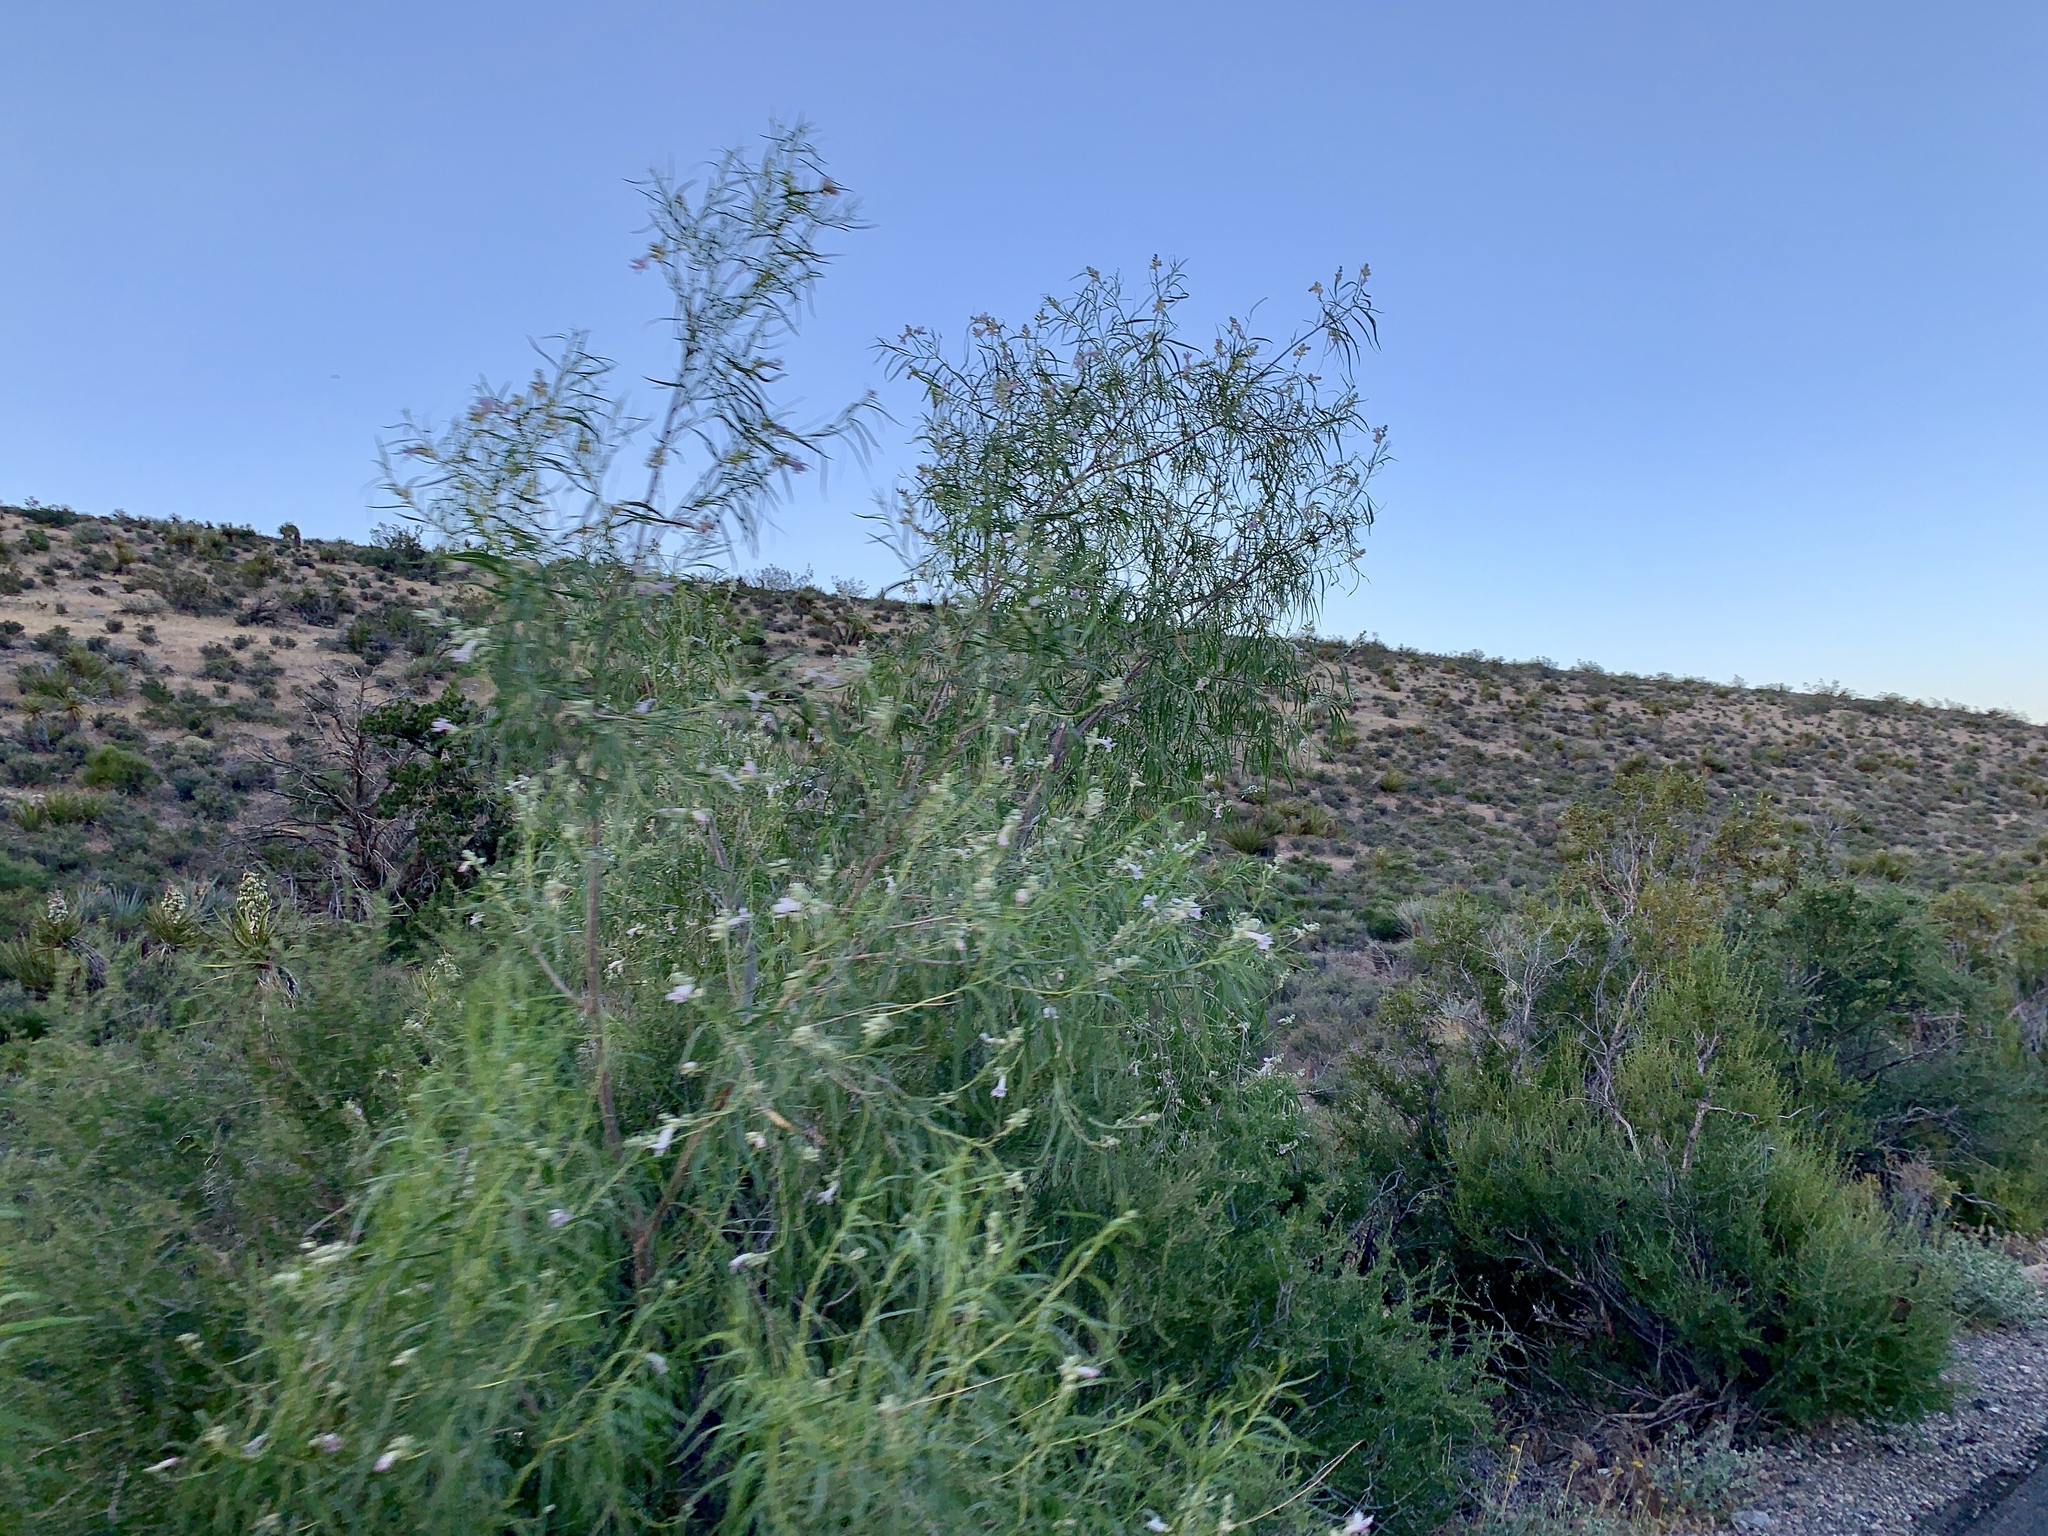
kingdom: Plantae
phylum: Tracheophyta
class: Magnoliopsida
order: Lamiales
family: Bignoniaceae
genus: Chilopsis
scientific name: Chilopsis linearis
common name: Desert-willow
